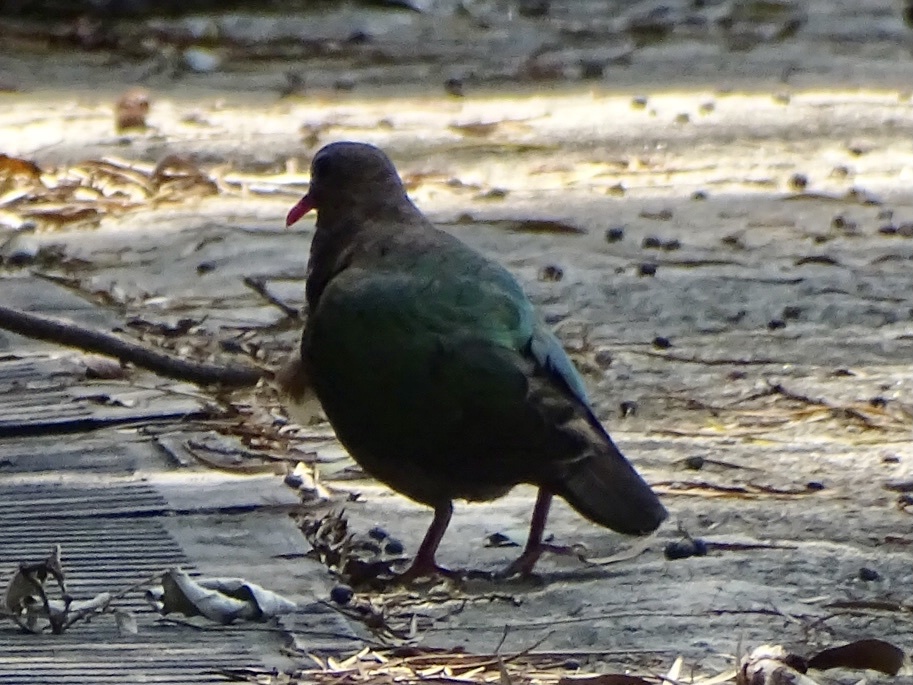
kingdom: Animalia
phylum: Chordata
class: Aves
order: Columbiformes
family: Columbidae
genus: Chalcophaps
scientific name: Chalcophaps indica
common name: Common emerald dove
